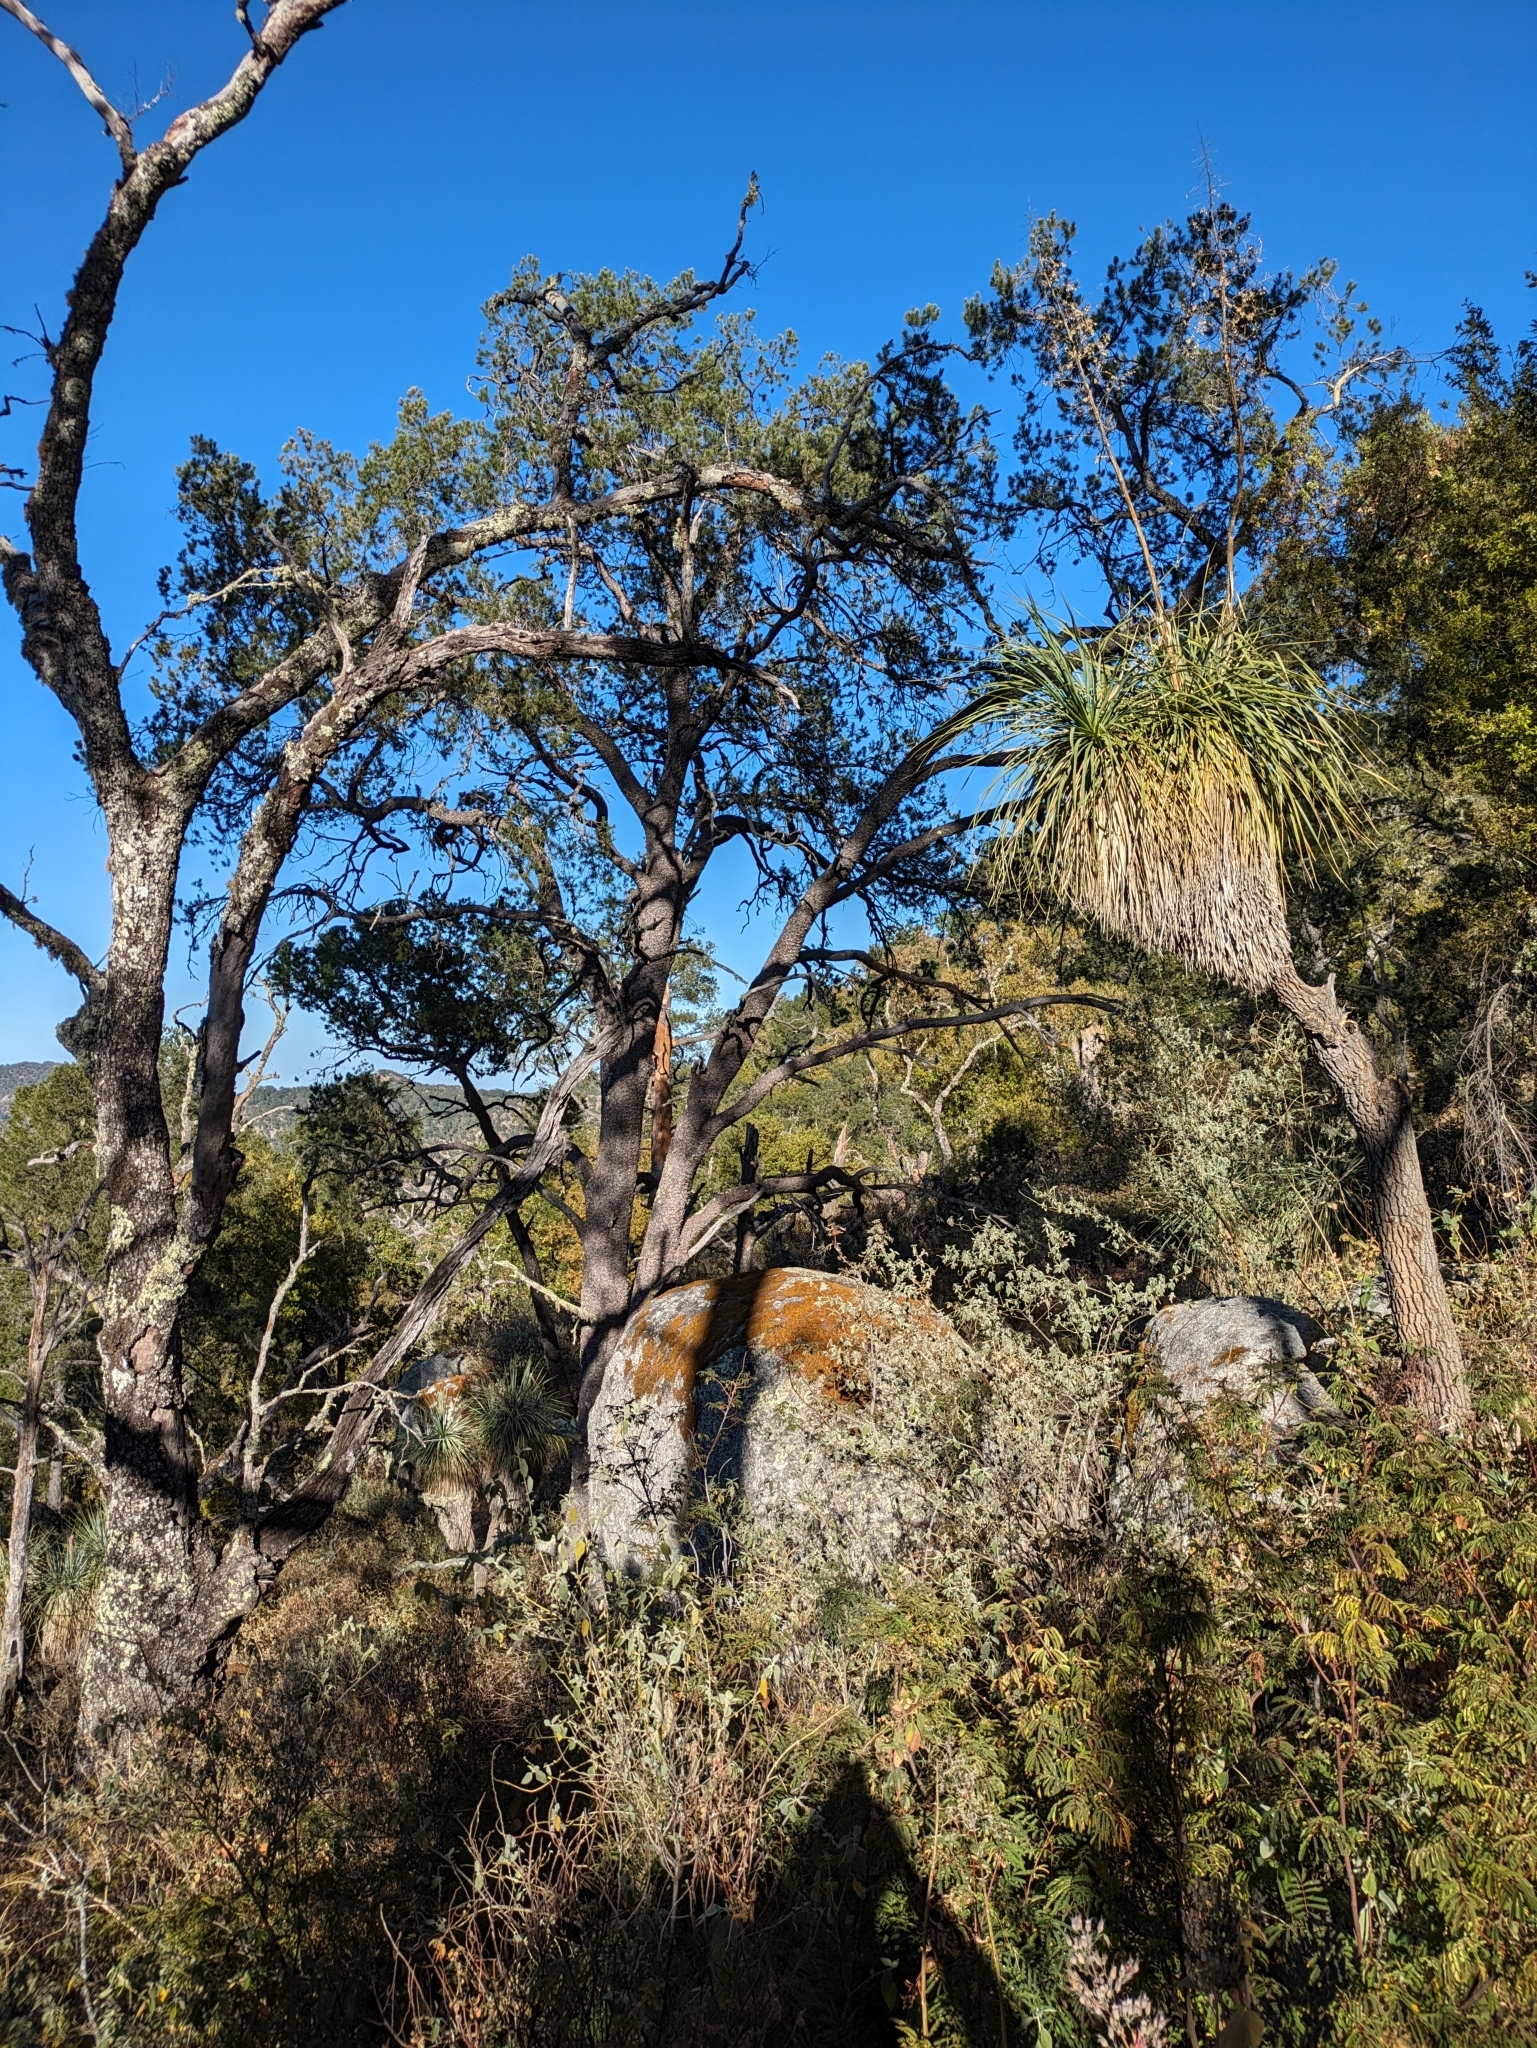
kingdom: Plantae
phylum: Tracheophyta
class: Pinopsida
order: Pinales
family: Pinaceae
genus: Pinus
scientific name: Pinus cembroides
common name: Mexican nut pine
